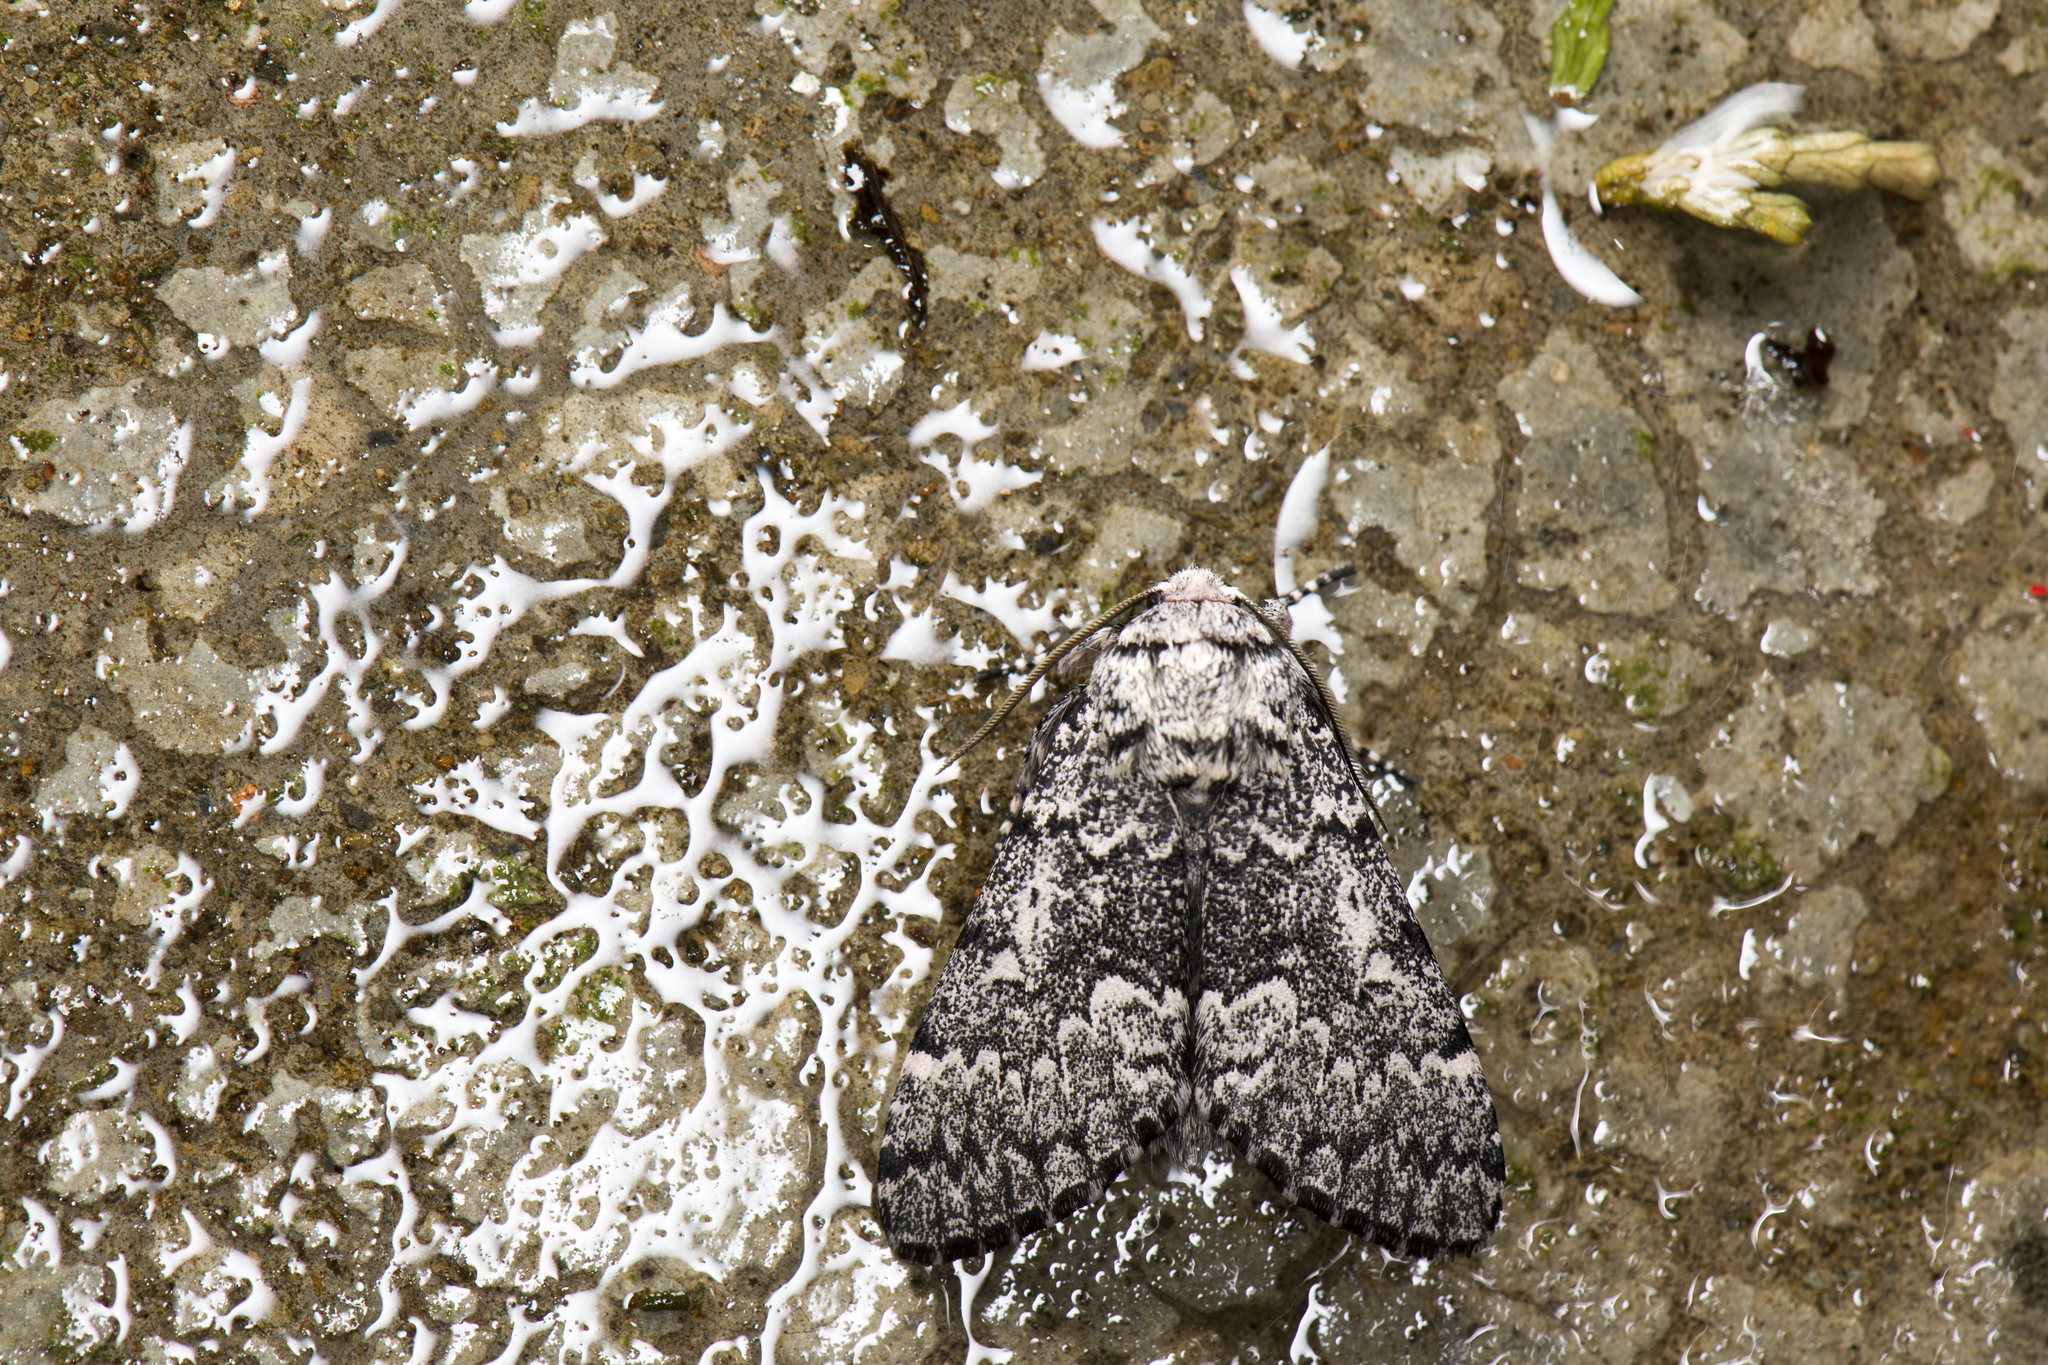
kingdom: Animalia
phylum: Arthropoda
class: Insecta
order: Lepidoptera
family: Noctuidae
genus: Panthea
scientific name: Panthea grisea
